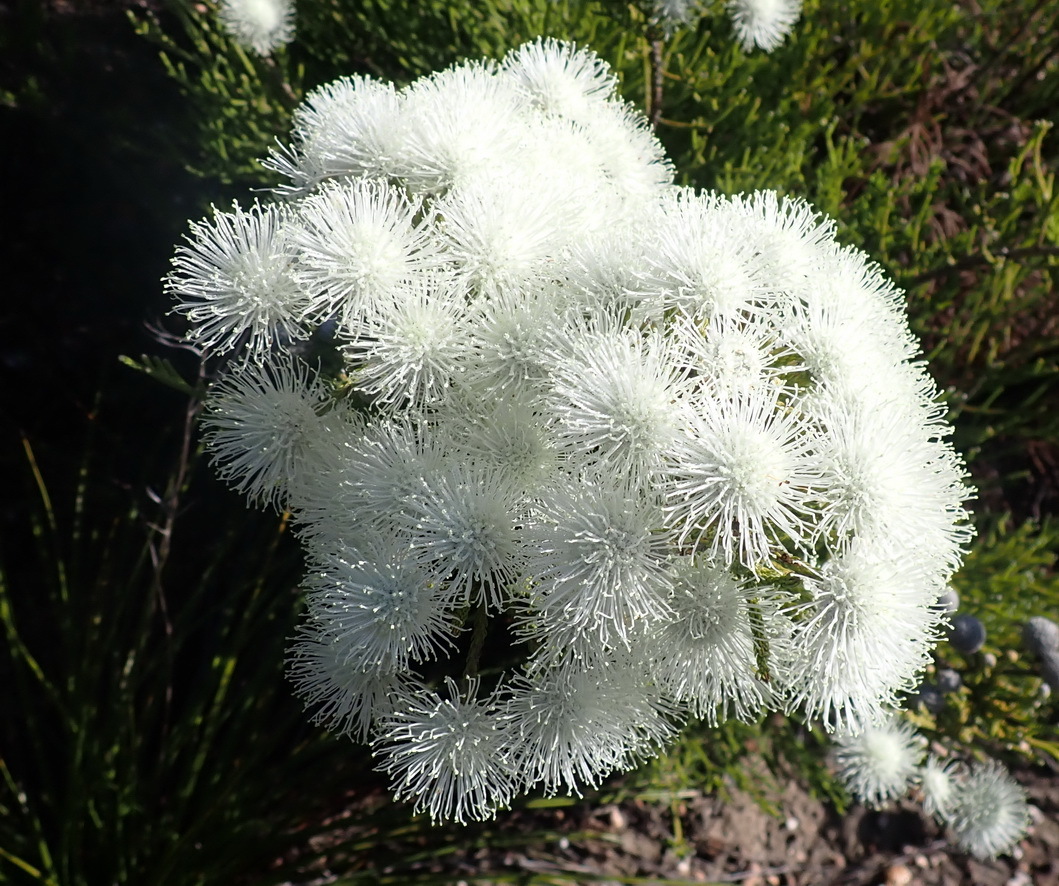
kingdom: Plantae
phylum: Tracheophyta
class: Magnoliopsida
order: Bruniales
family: Bruniaceae
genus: Brunia
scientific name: Brunia noduliflora
